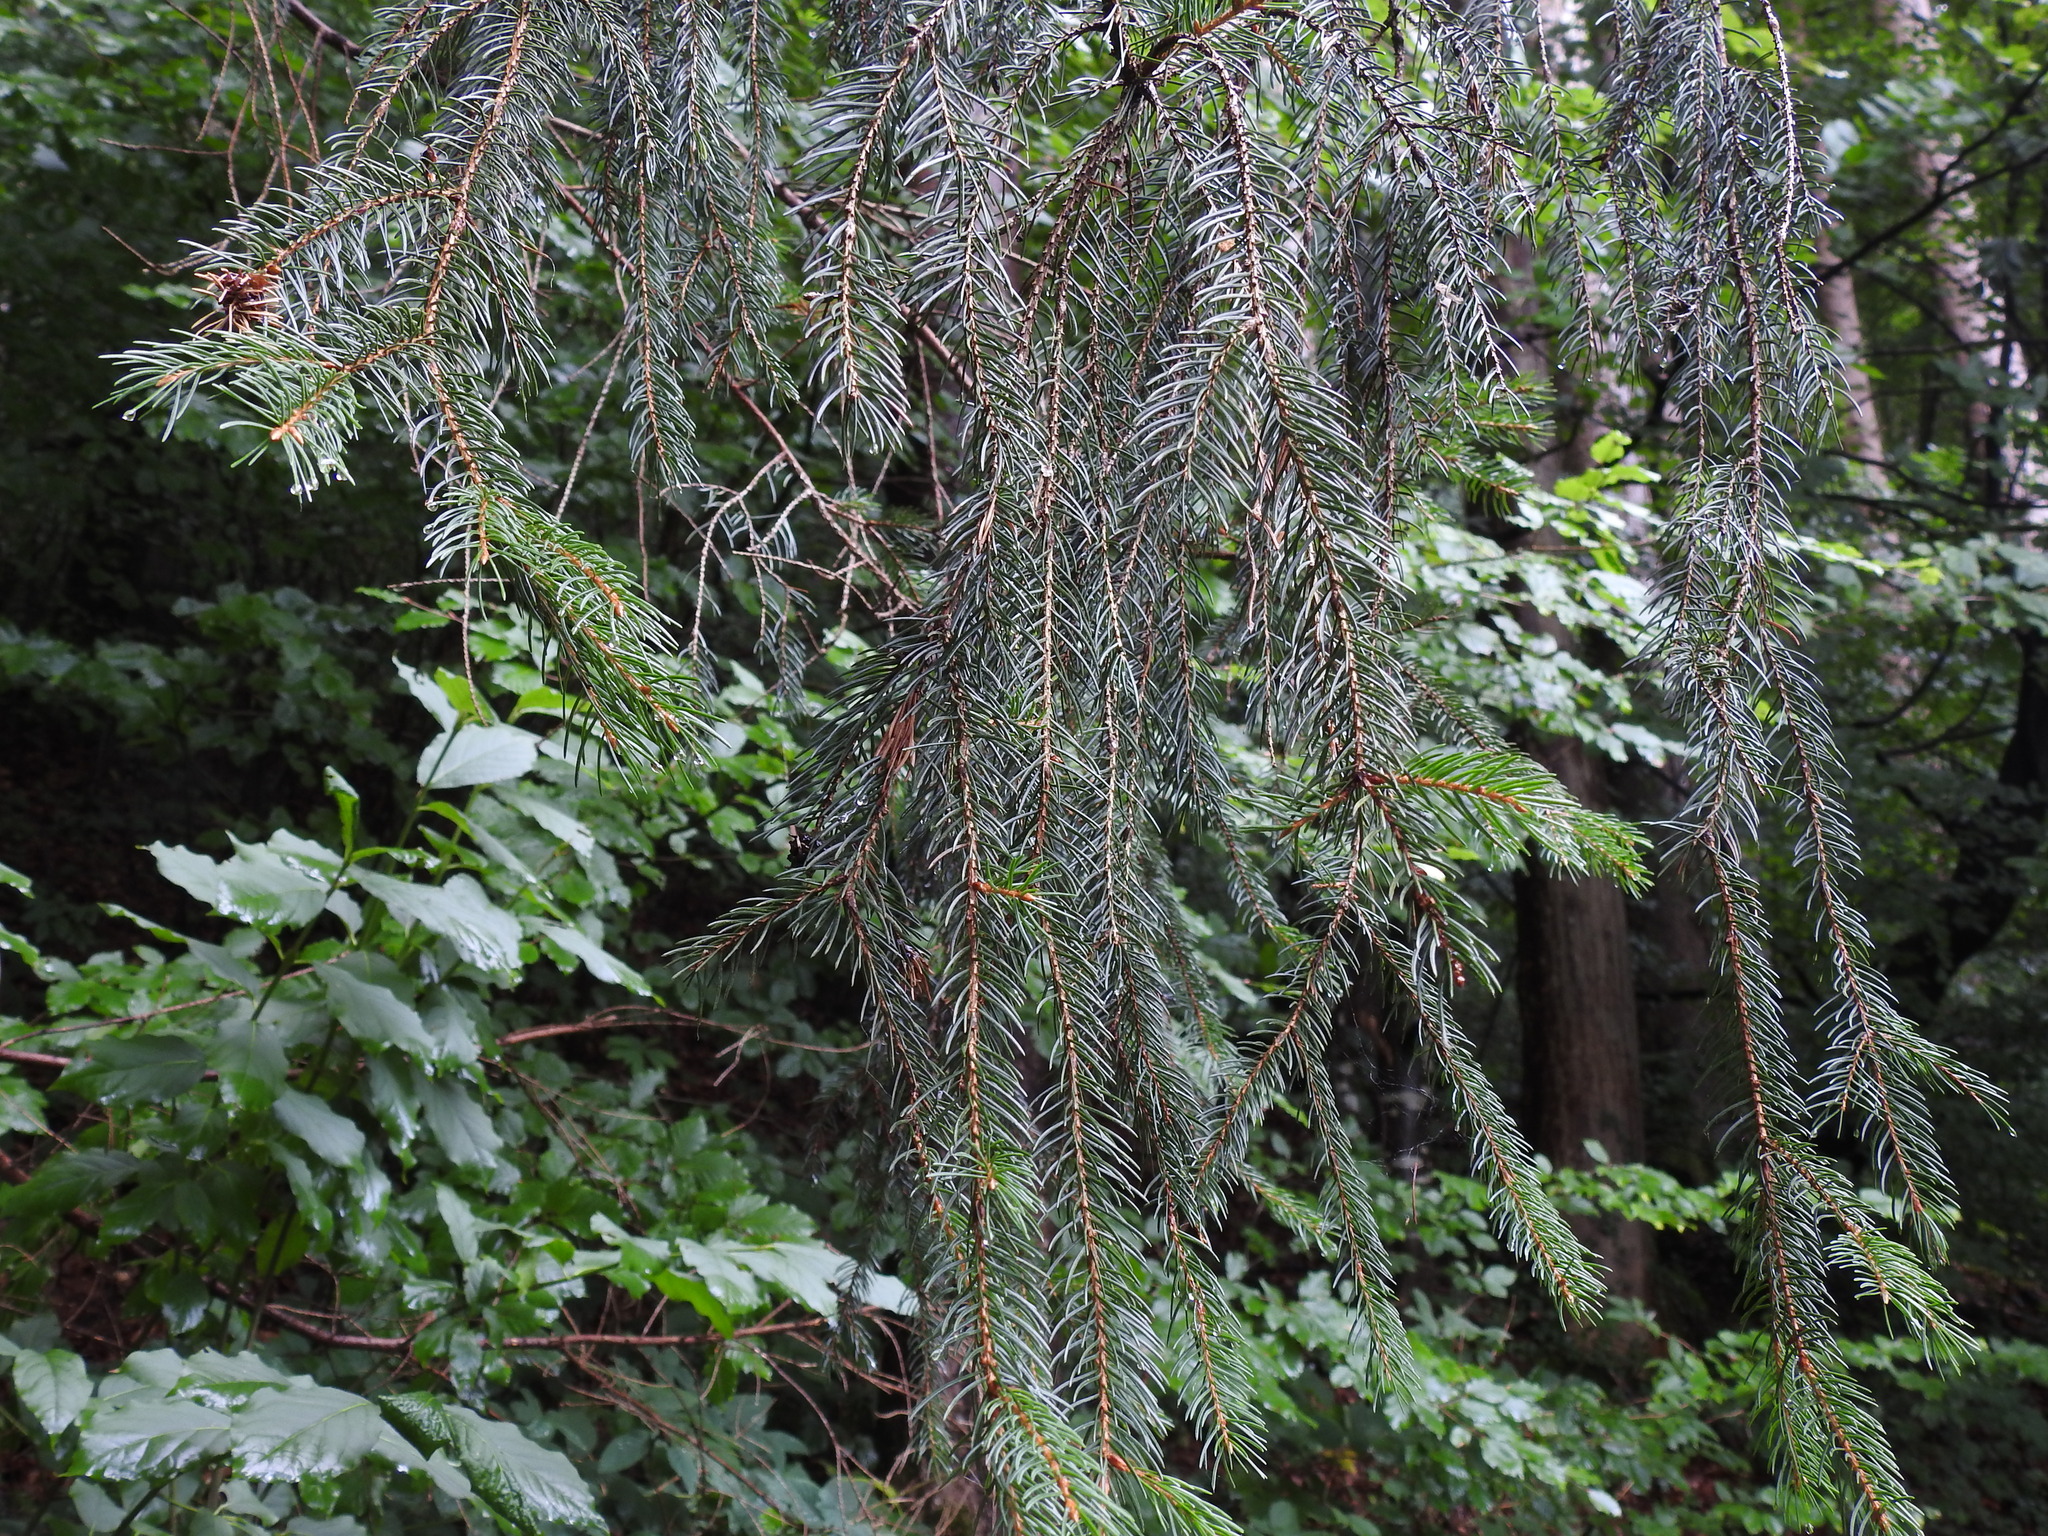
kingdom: Plantae
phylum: Tracheophyta
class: Pinopsida
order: Pinales
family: Pinaceae
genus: Picea
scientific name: Picea abies
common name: Norway spruce
